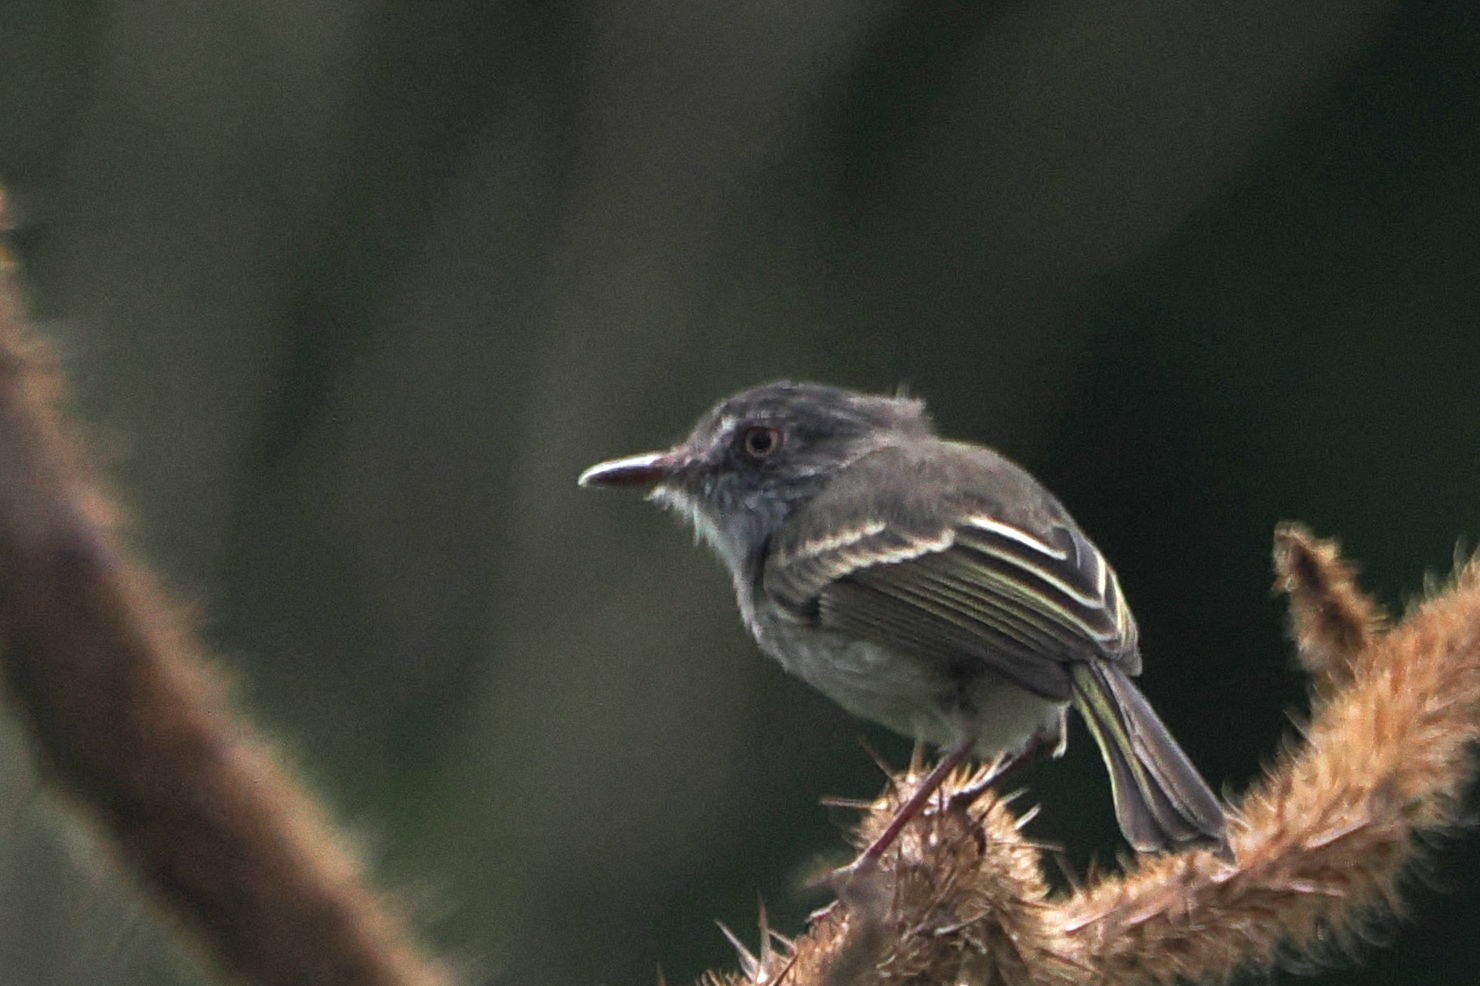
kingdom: Animalia
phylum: Chordata
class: Aves
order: Passeriformes
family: Tyrannidae
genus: Hemitriccus
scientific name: Hemitriccus margaritaceiventer
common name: Pearly-vented tody-tyrant
